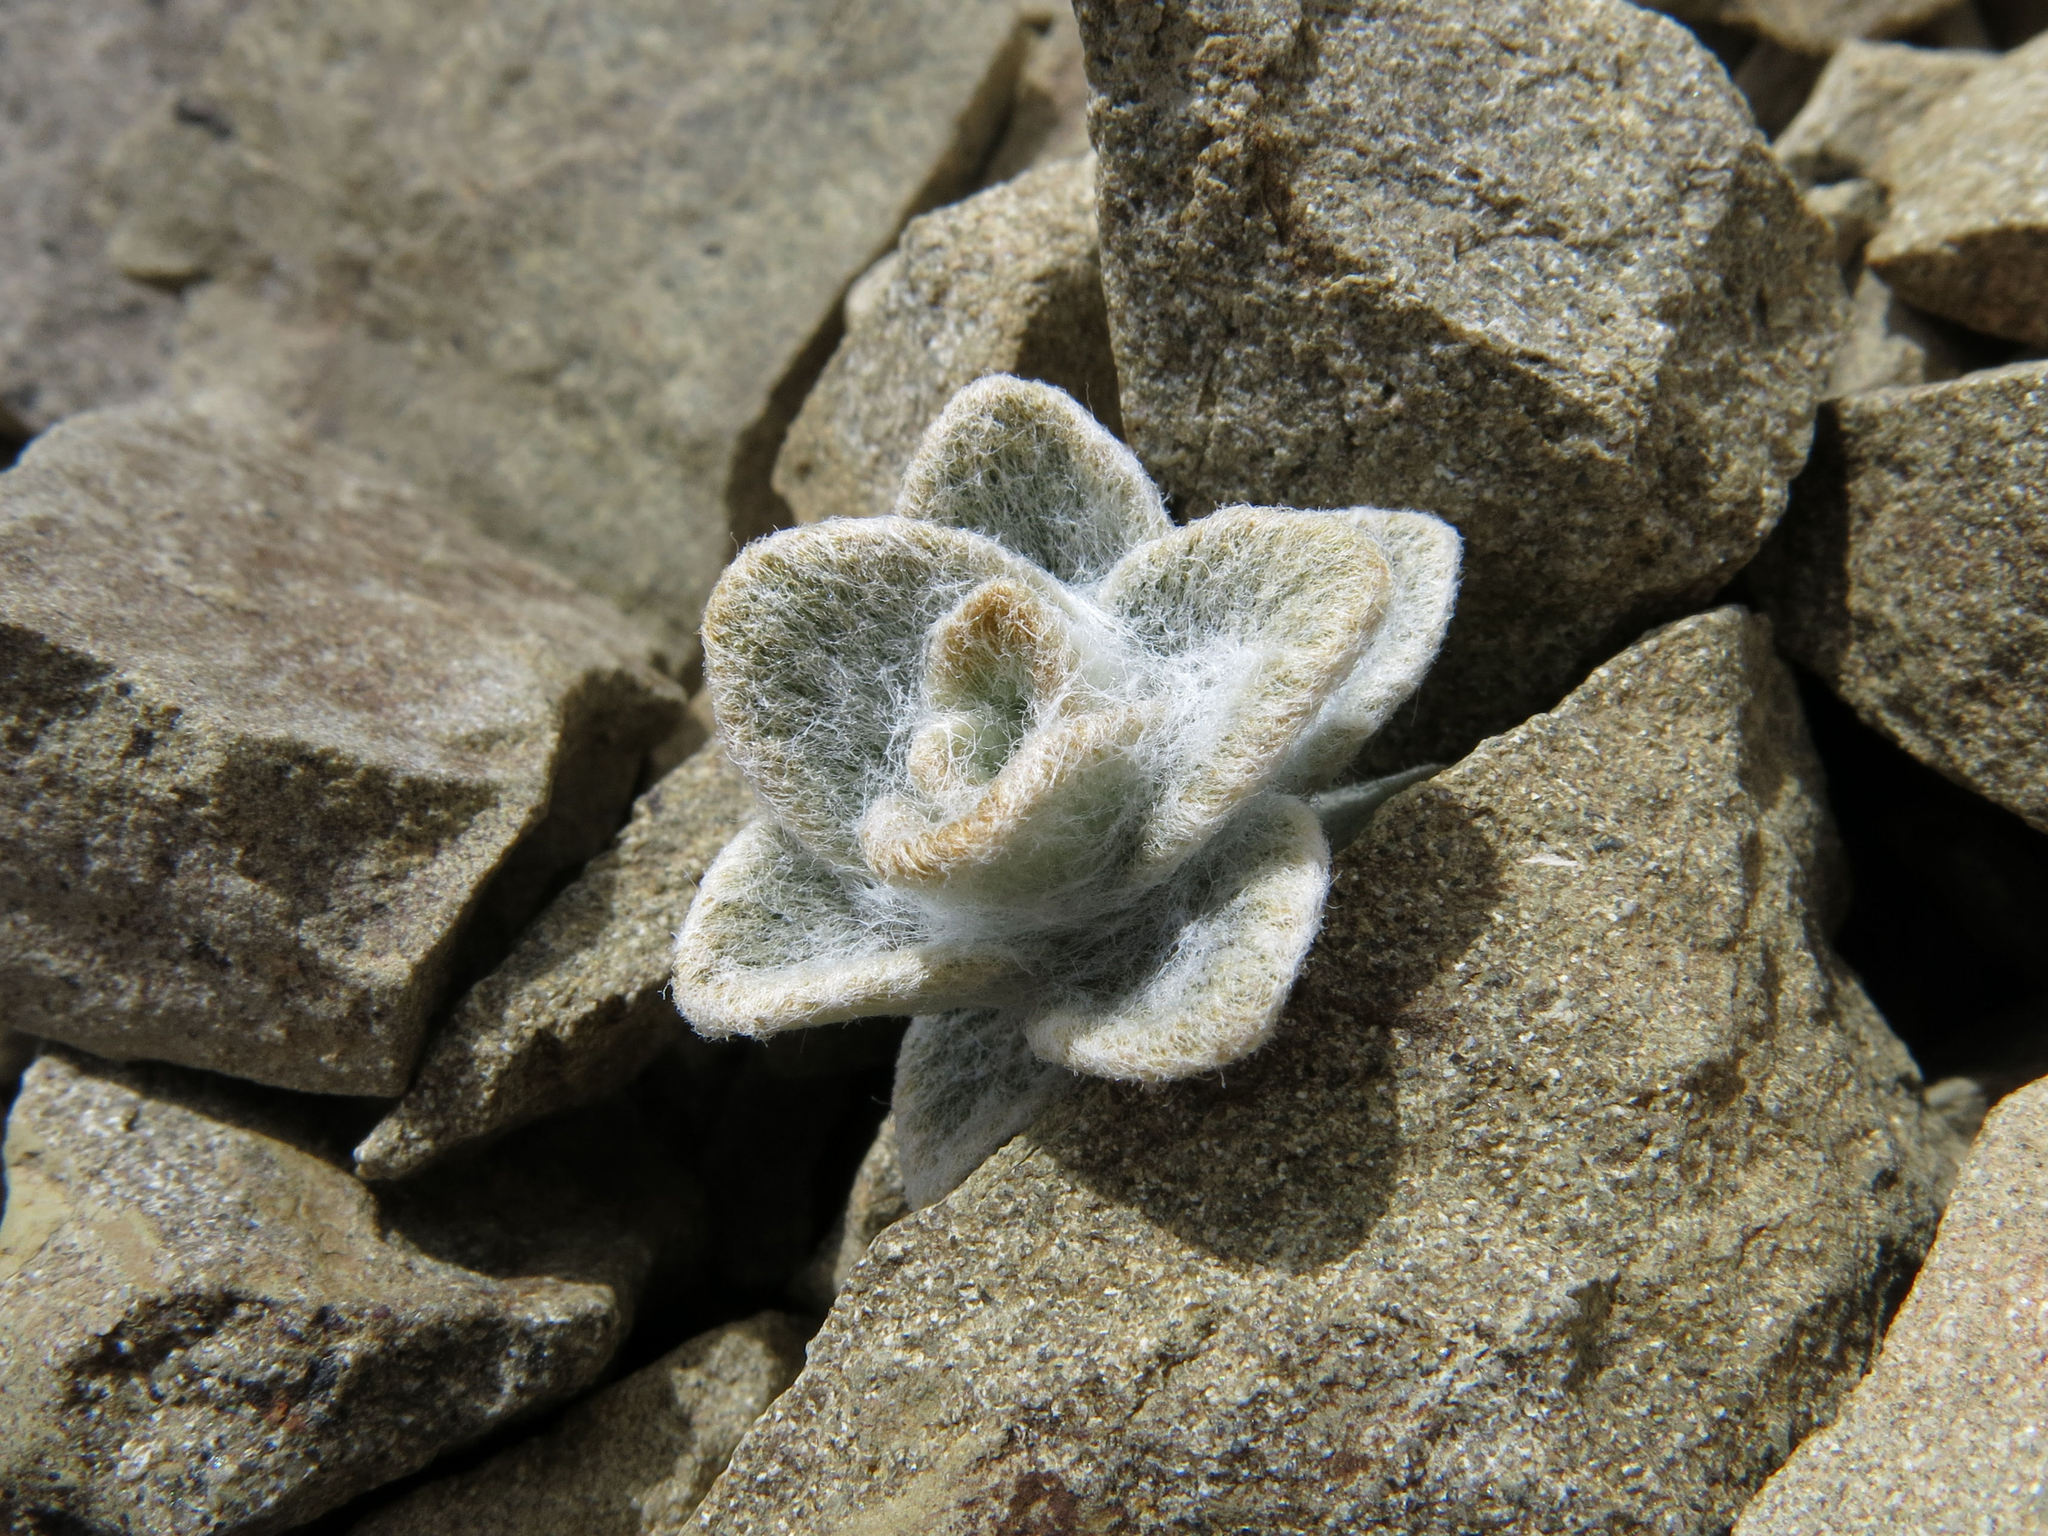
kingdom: Plantae
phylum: Tracheophyta
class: Magnoliopsida
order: Asterales
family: Asteraceae
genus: Haastia
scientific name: Haastia sinclairii
